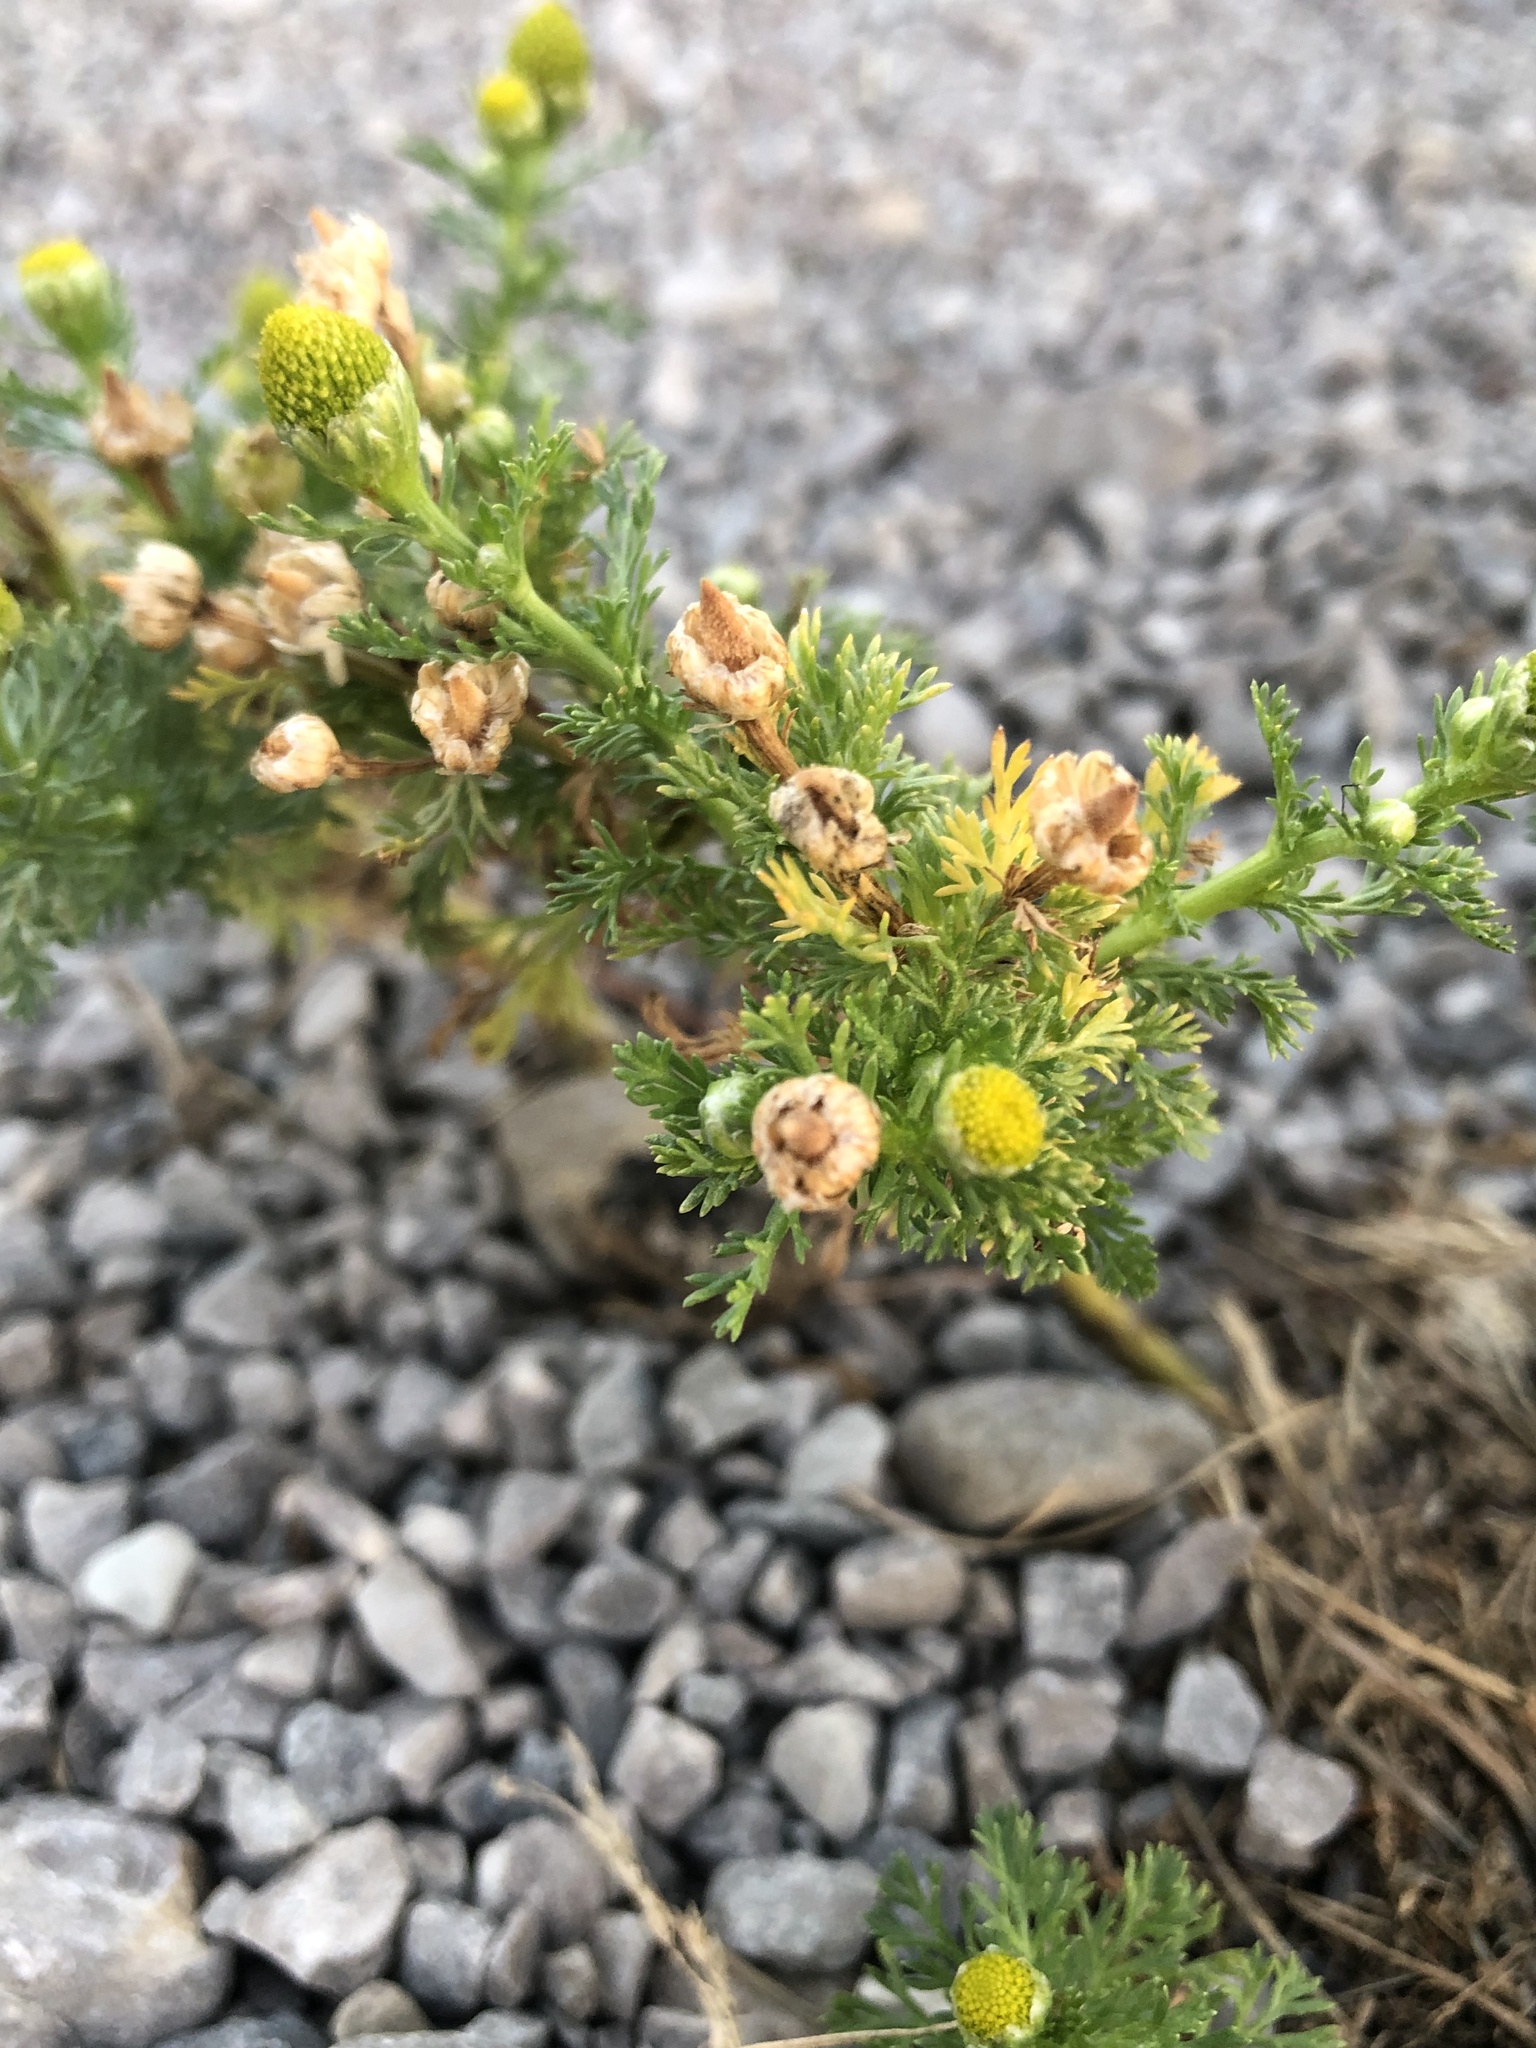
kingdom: Plantae
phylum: Tracheophyta
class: Magnoliopsida
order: Asterales
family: Asteraceae
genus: Matricaria
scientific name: Matricaria discoidea
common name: Disc mayweed
